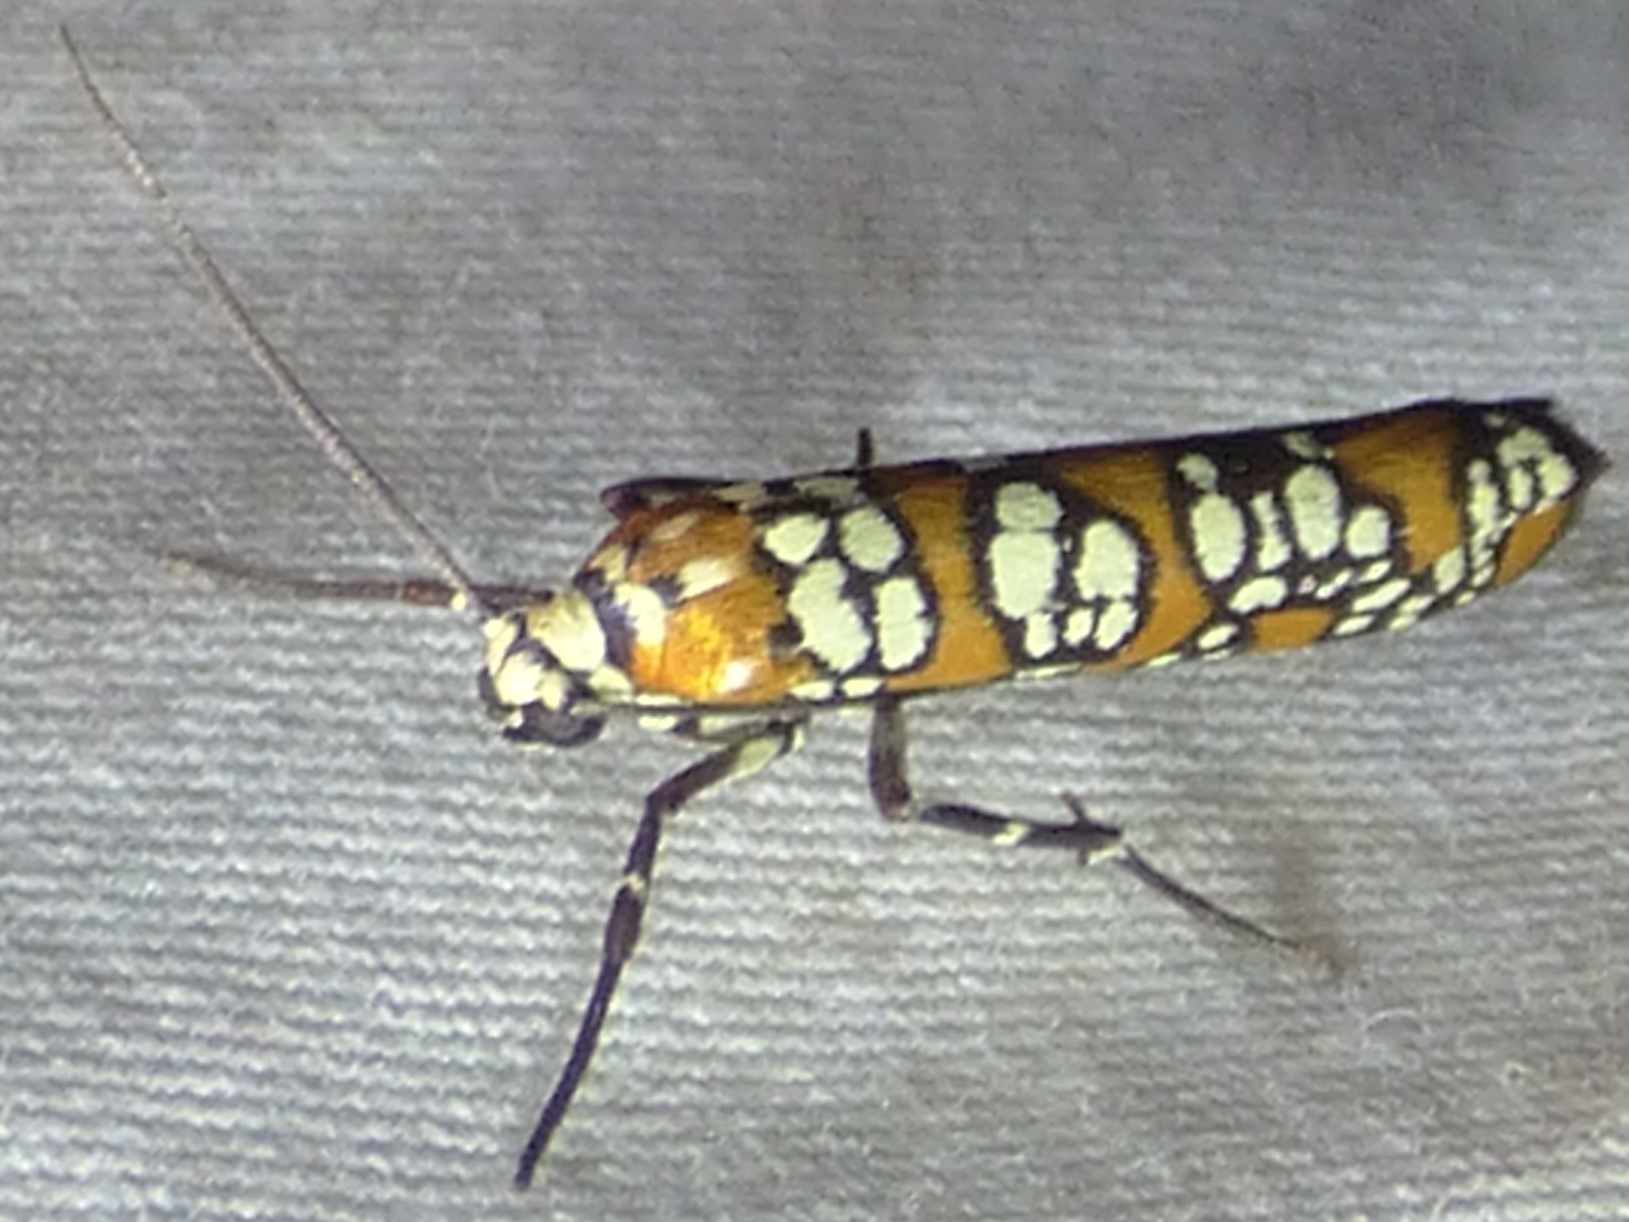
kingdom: Animalia
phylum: Arthropoda
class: Insecta
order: Lepidoptera
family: Attevidae
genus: Atteva
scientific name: Atteva punctella
